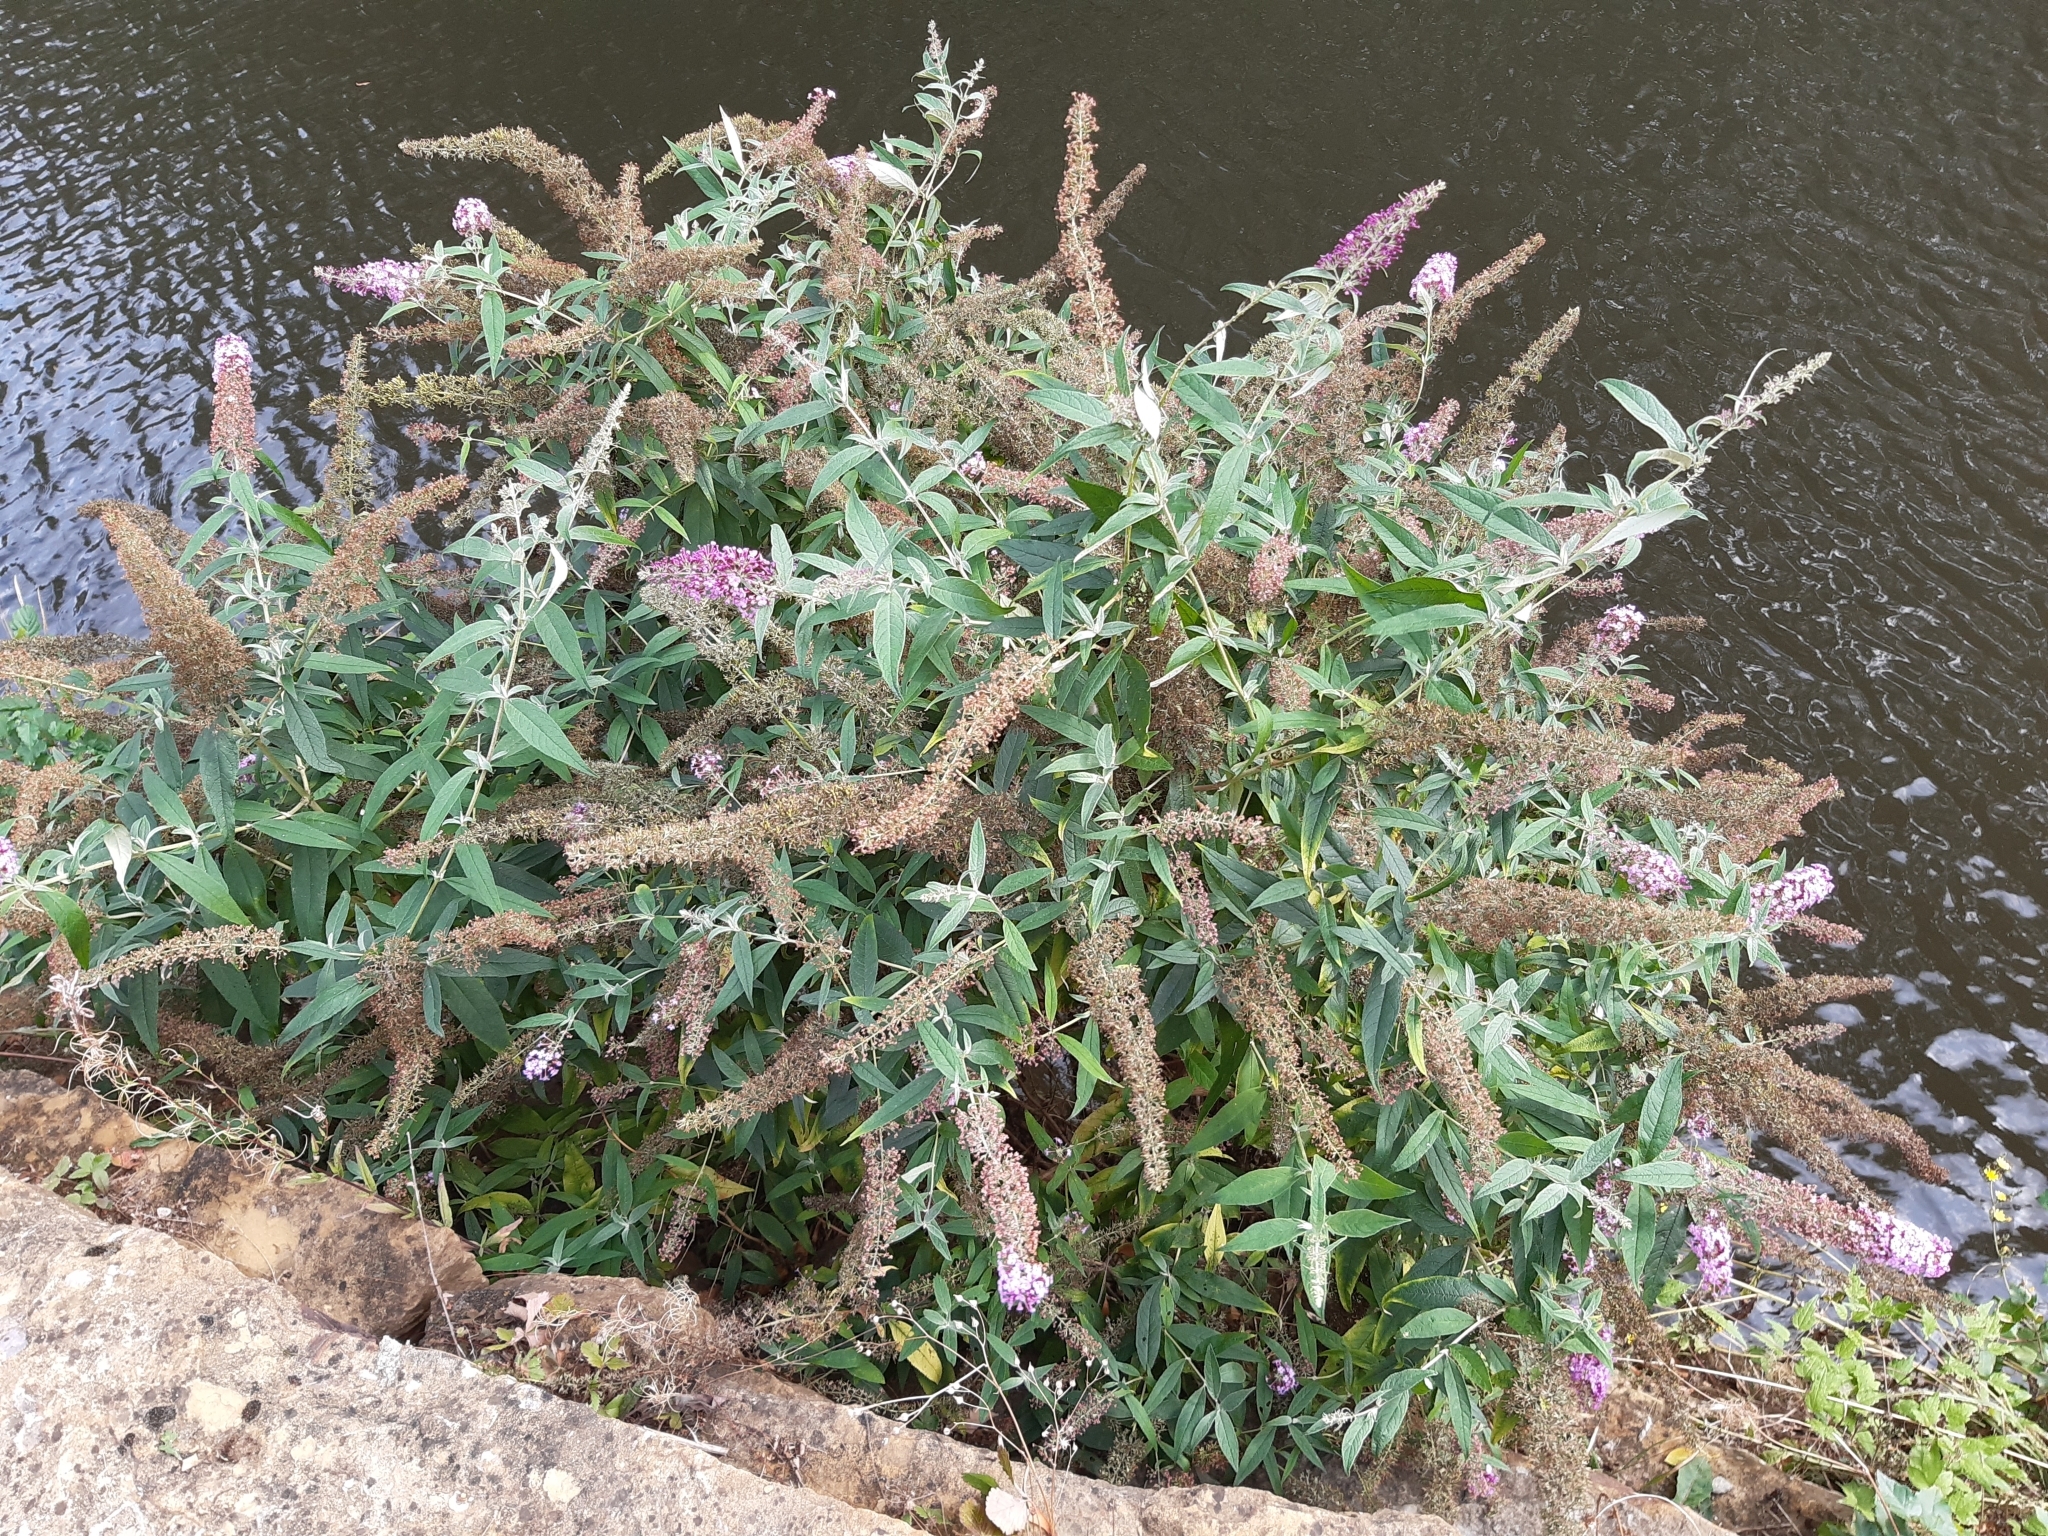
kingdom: Plantae
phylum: Tracheophyta
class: Magnoliopsida
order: Lamiales
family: Scrophulariaceae
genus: Buddleja
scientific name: Buddleja davidii
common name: Butterfly-bush
